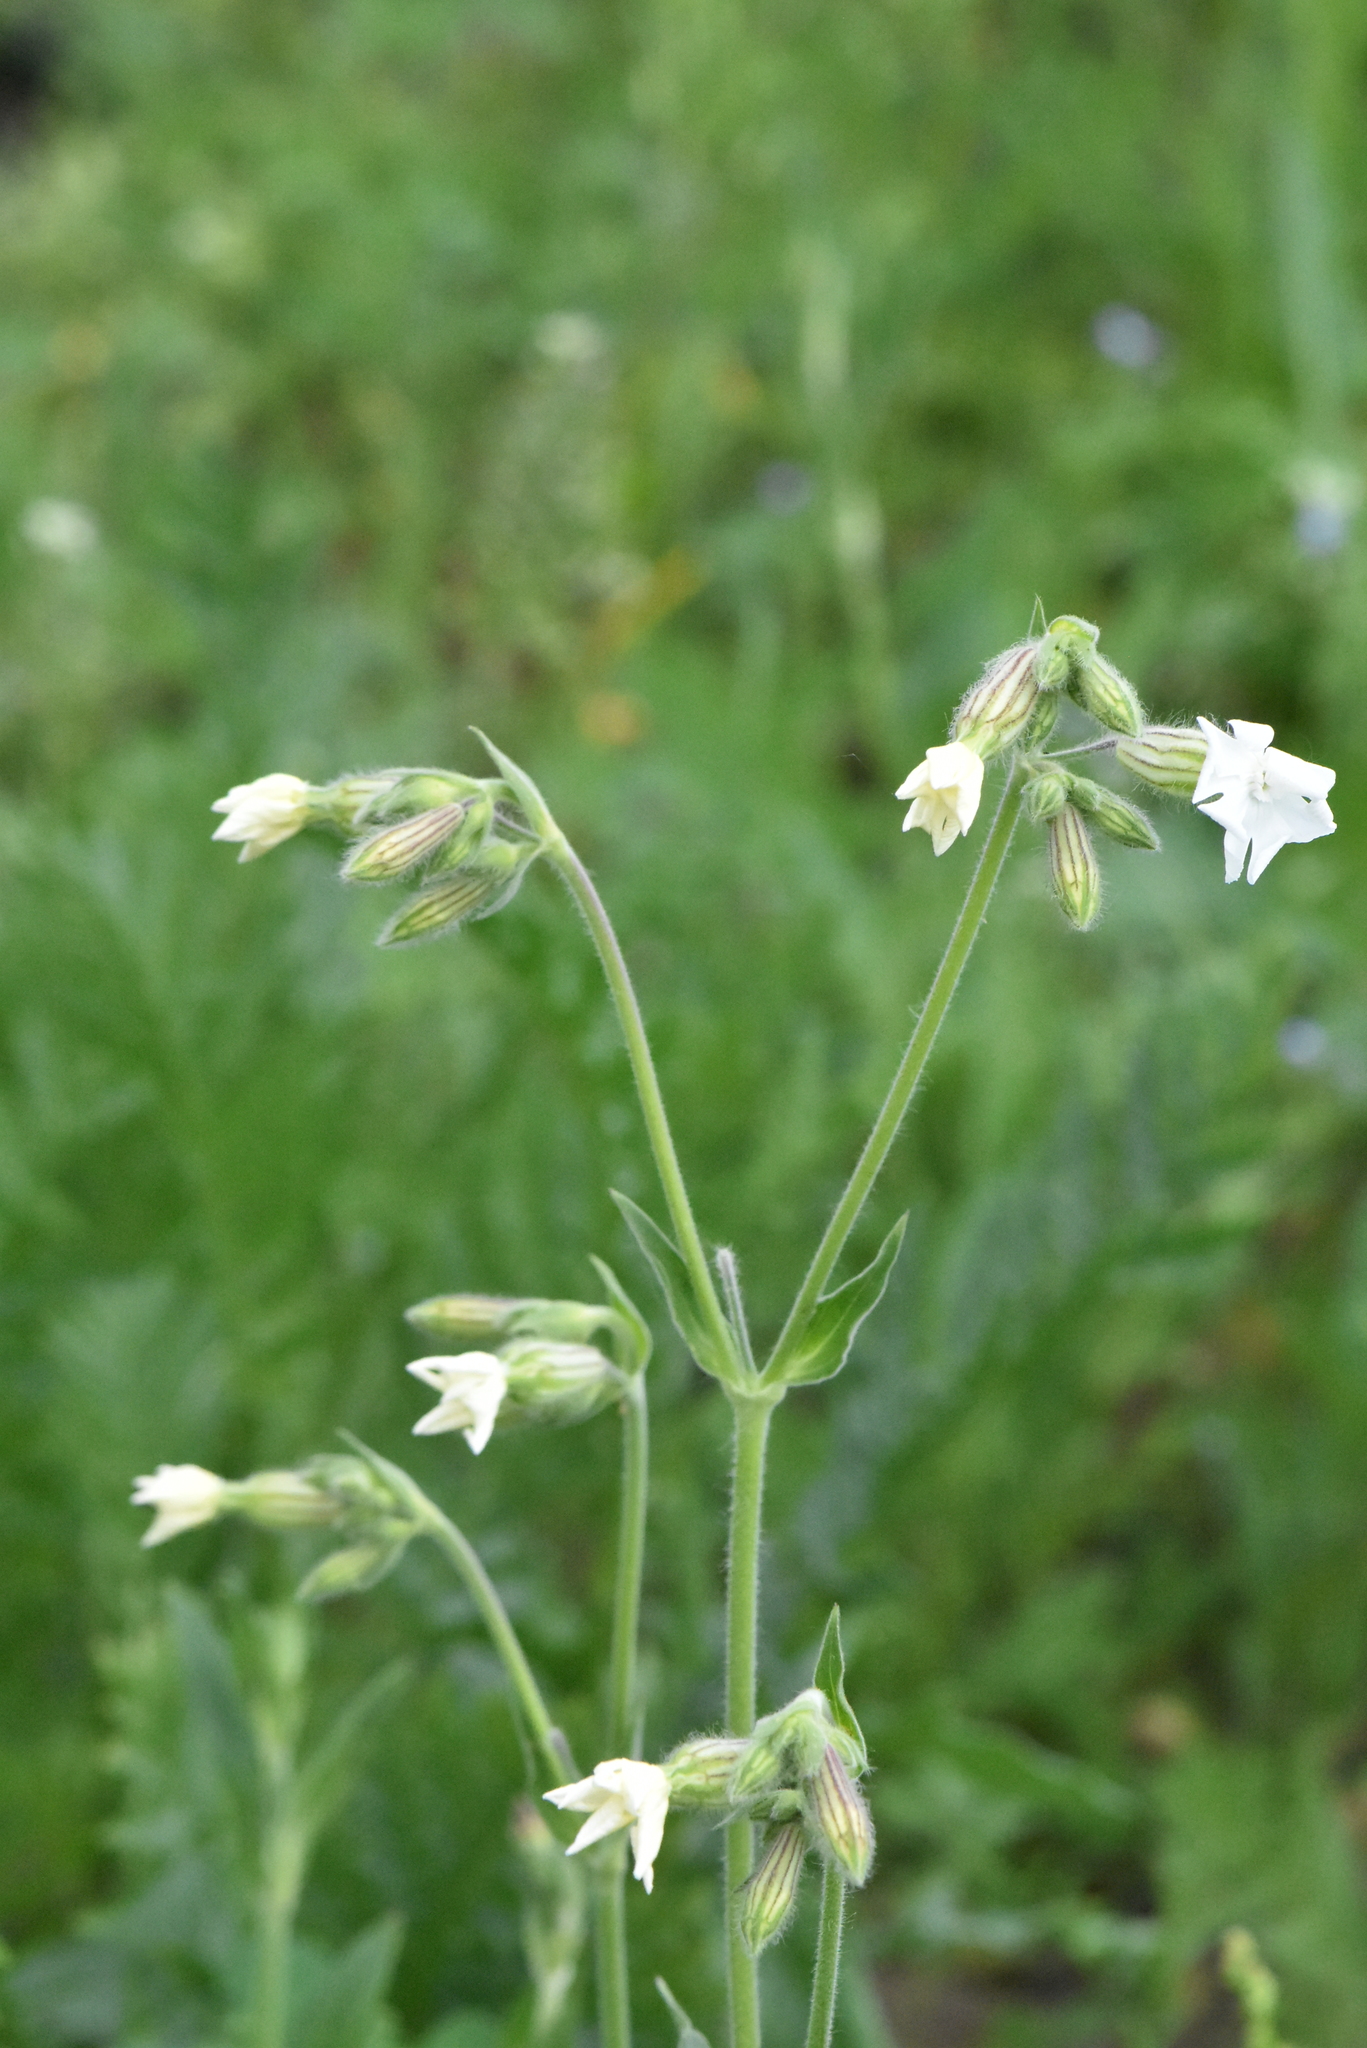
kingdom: Plantae
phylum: Tracheophyta
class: Magnoliopsida
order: Caryophyllales
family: Caryophyllaceae
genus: Silene
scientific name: Silene latifolia
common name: White campion
